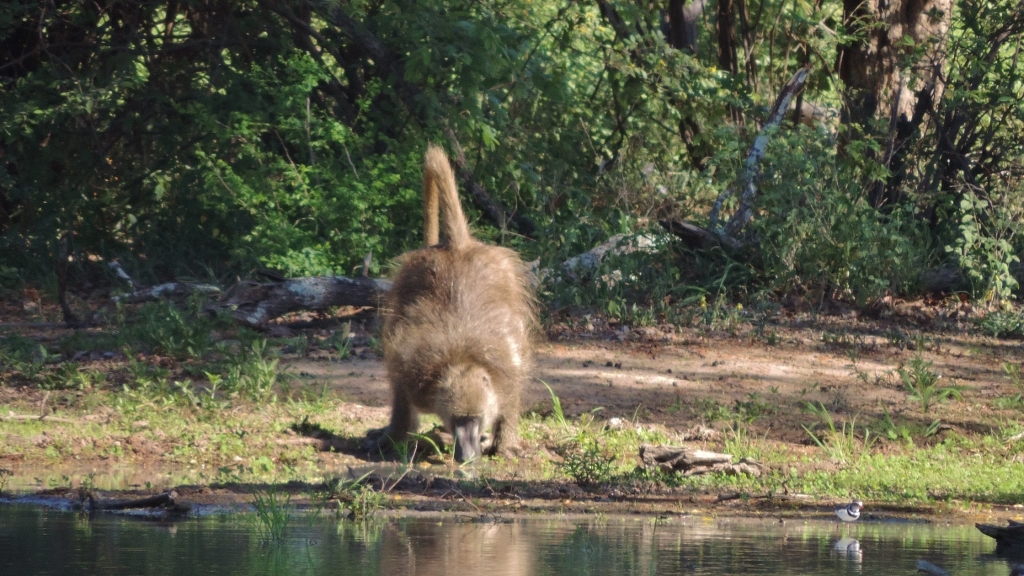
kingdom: Animalia
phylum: Chordata
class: Mammalia
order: Primates
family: Cercopithecidae
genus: Papio
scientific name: Papio ursinus
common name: Chacma baboon
